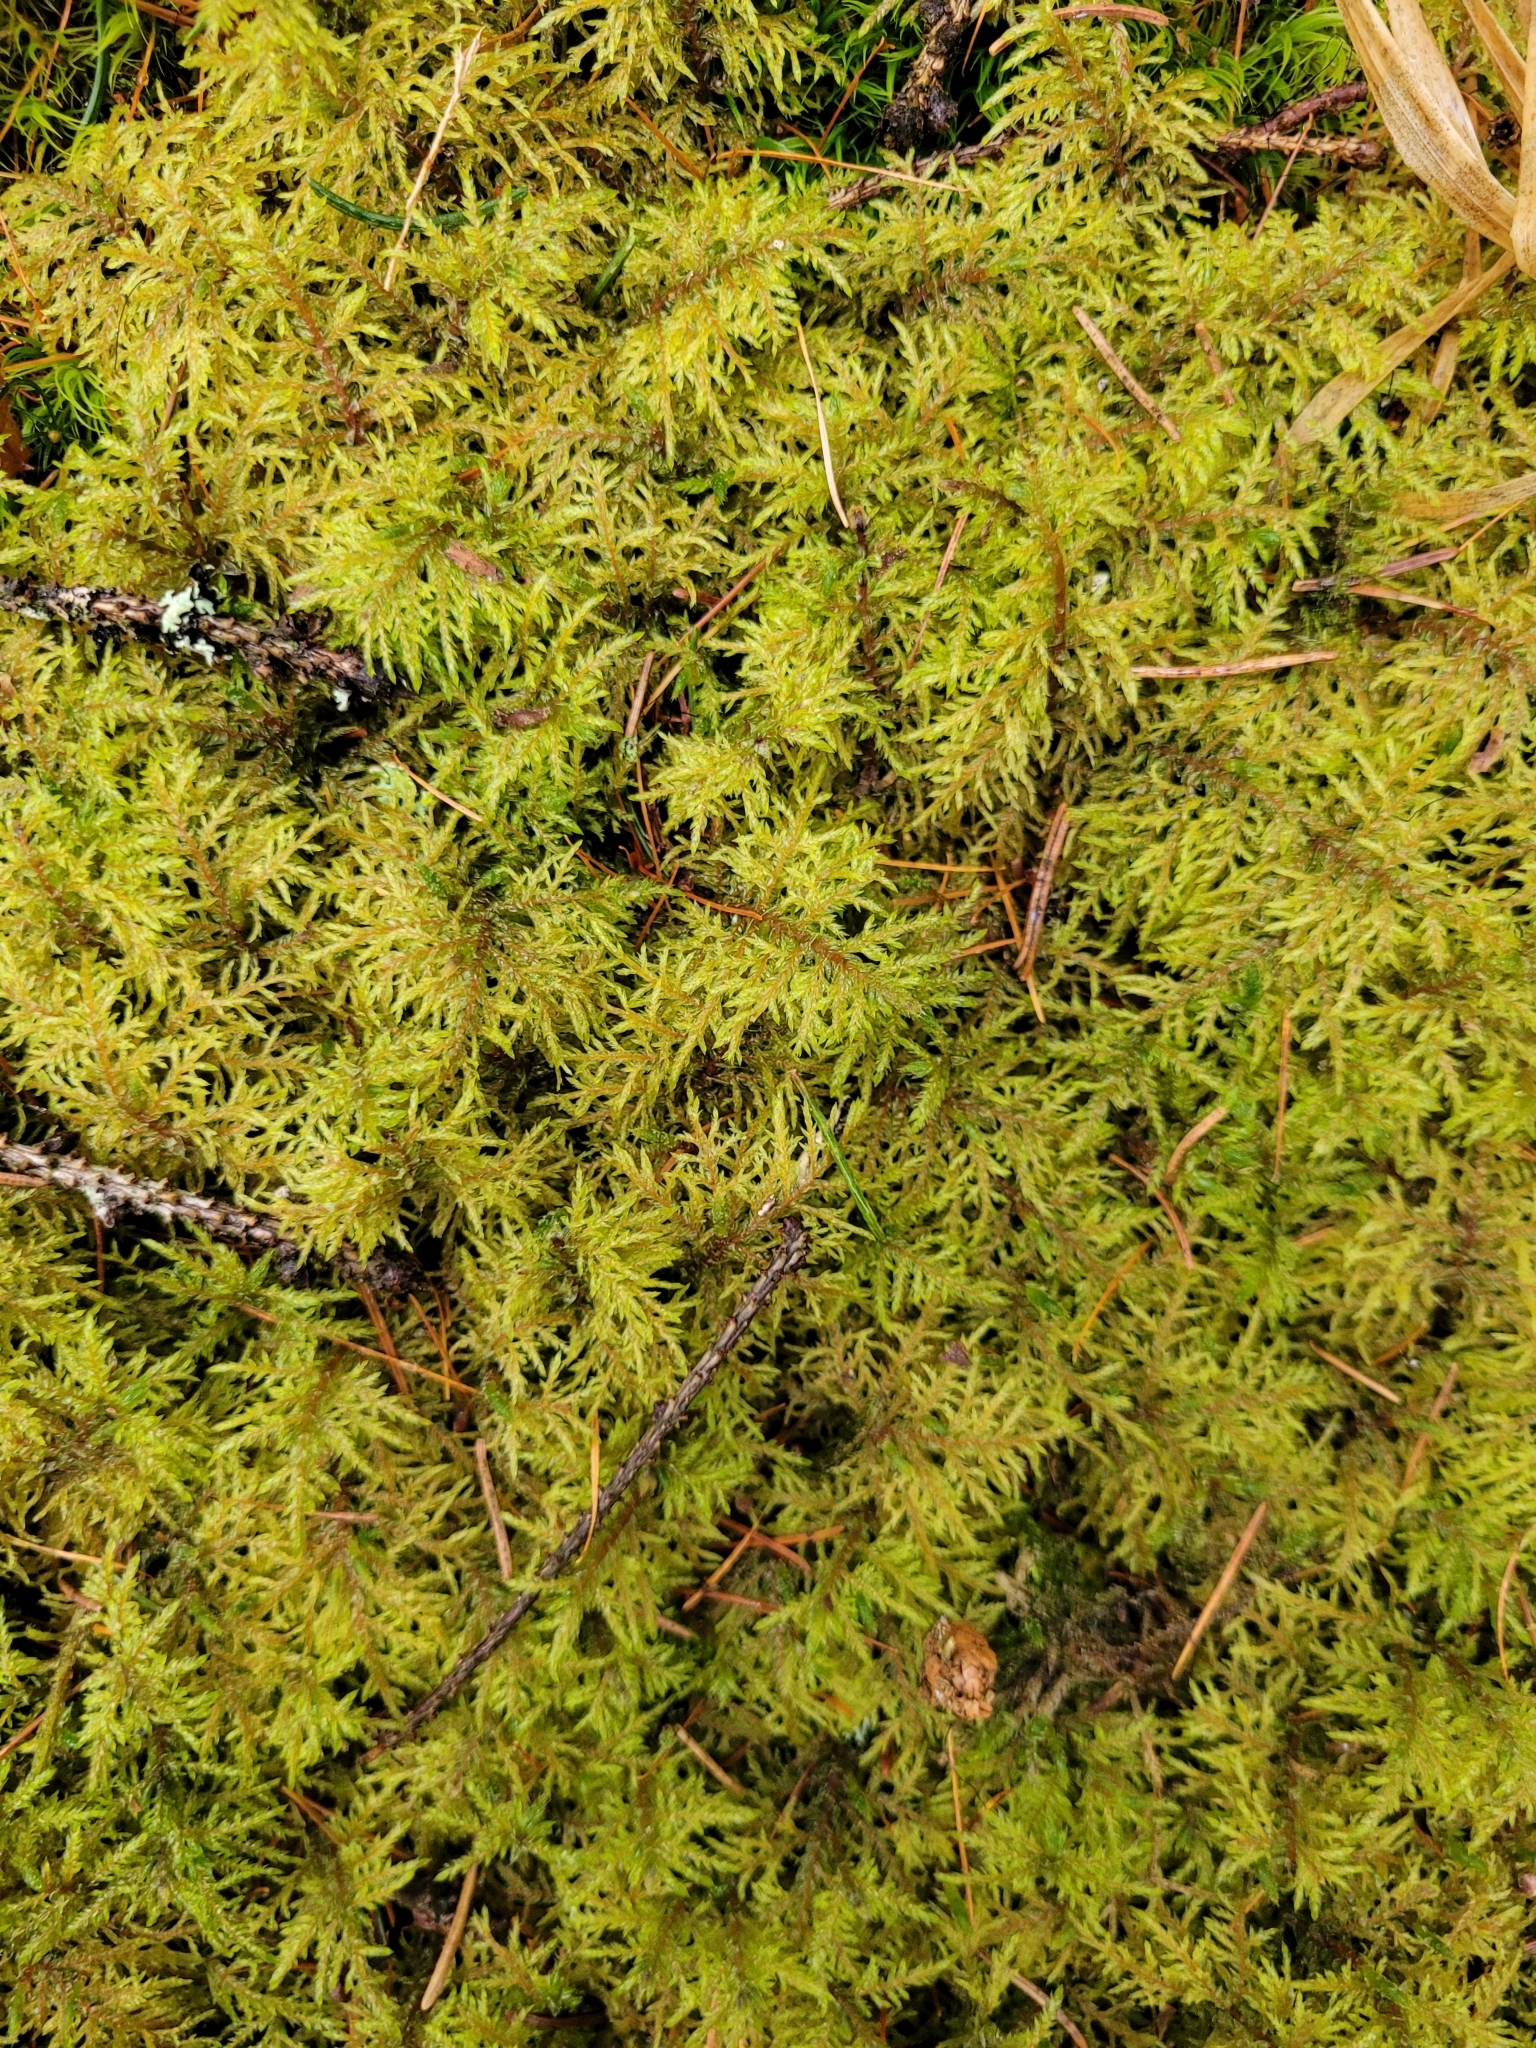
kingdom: Plantae
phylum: Bryophyta
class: Bryopsida
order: Hypnales
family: Hylocomiaceae
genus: Hylocomium
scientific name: Hylocomium splendens
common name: Stairstep moss
